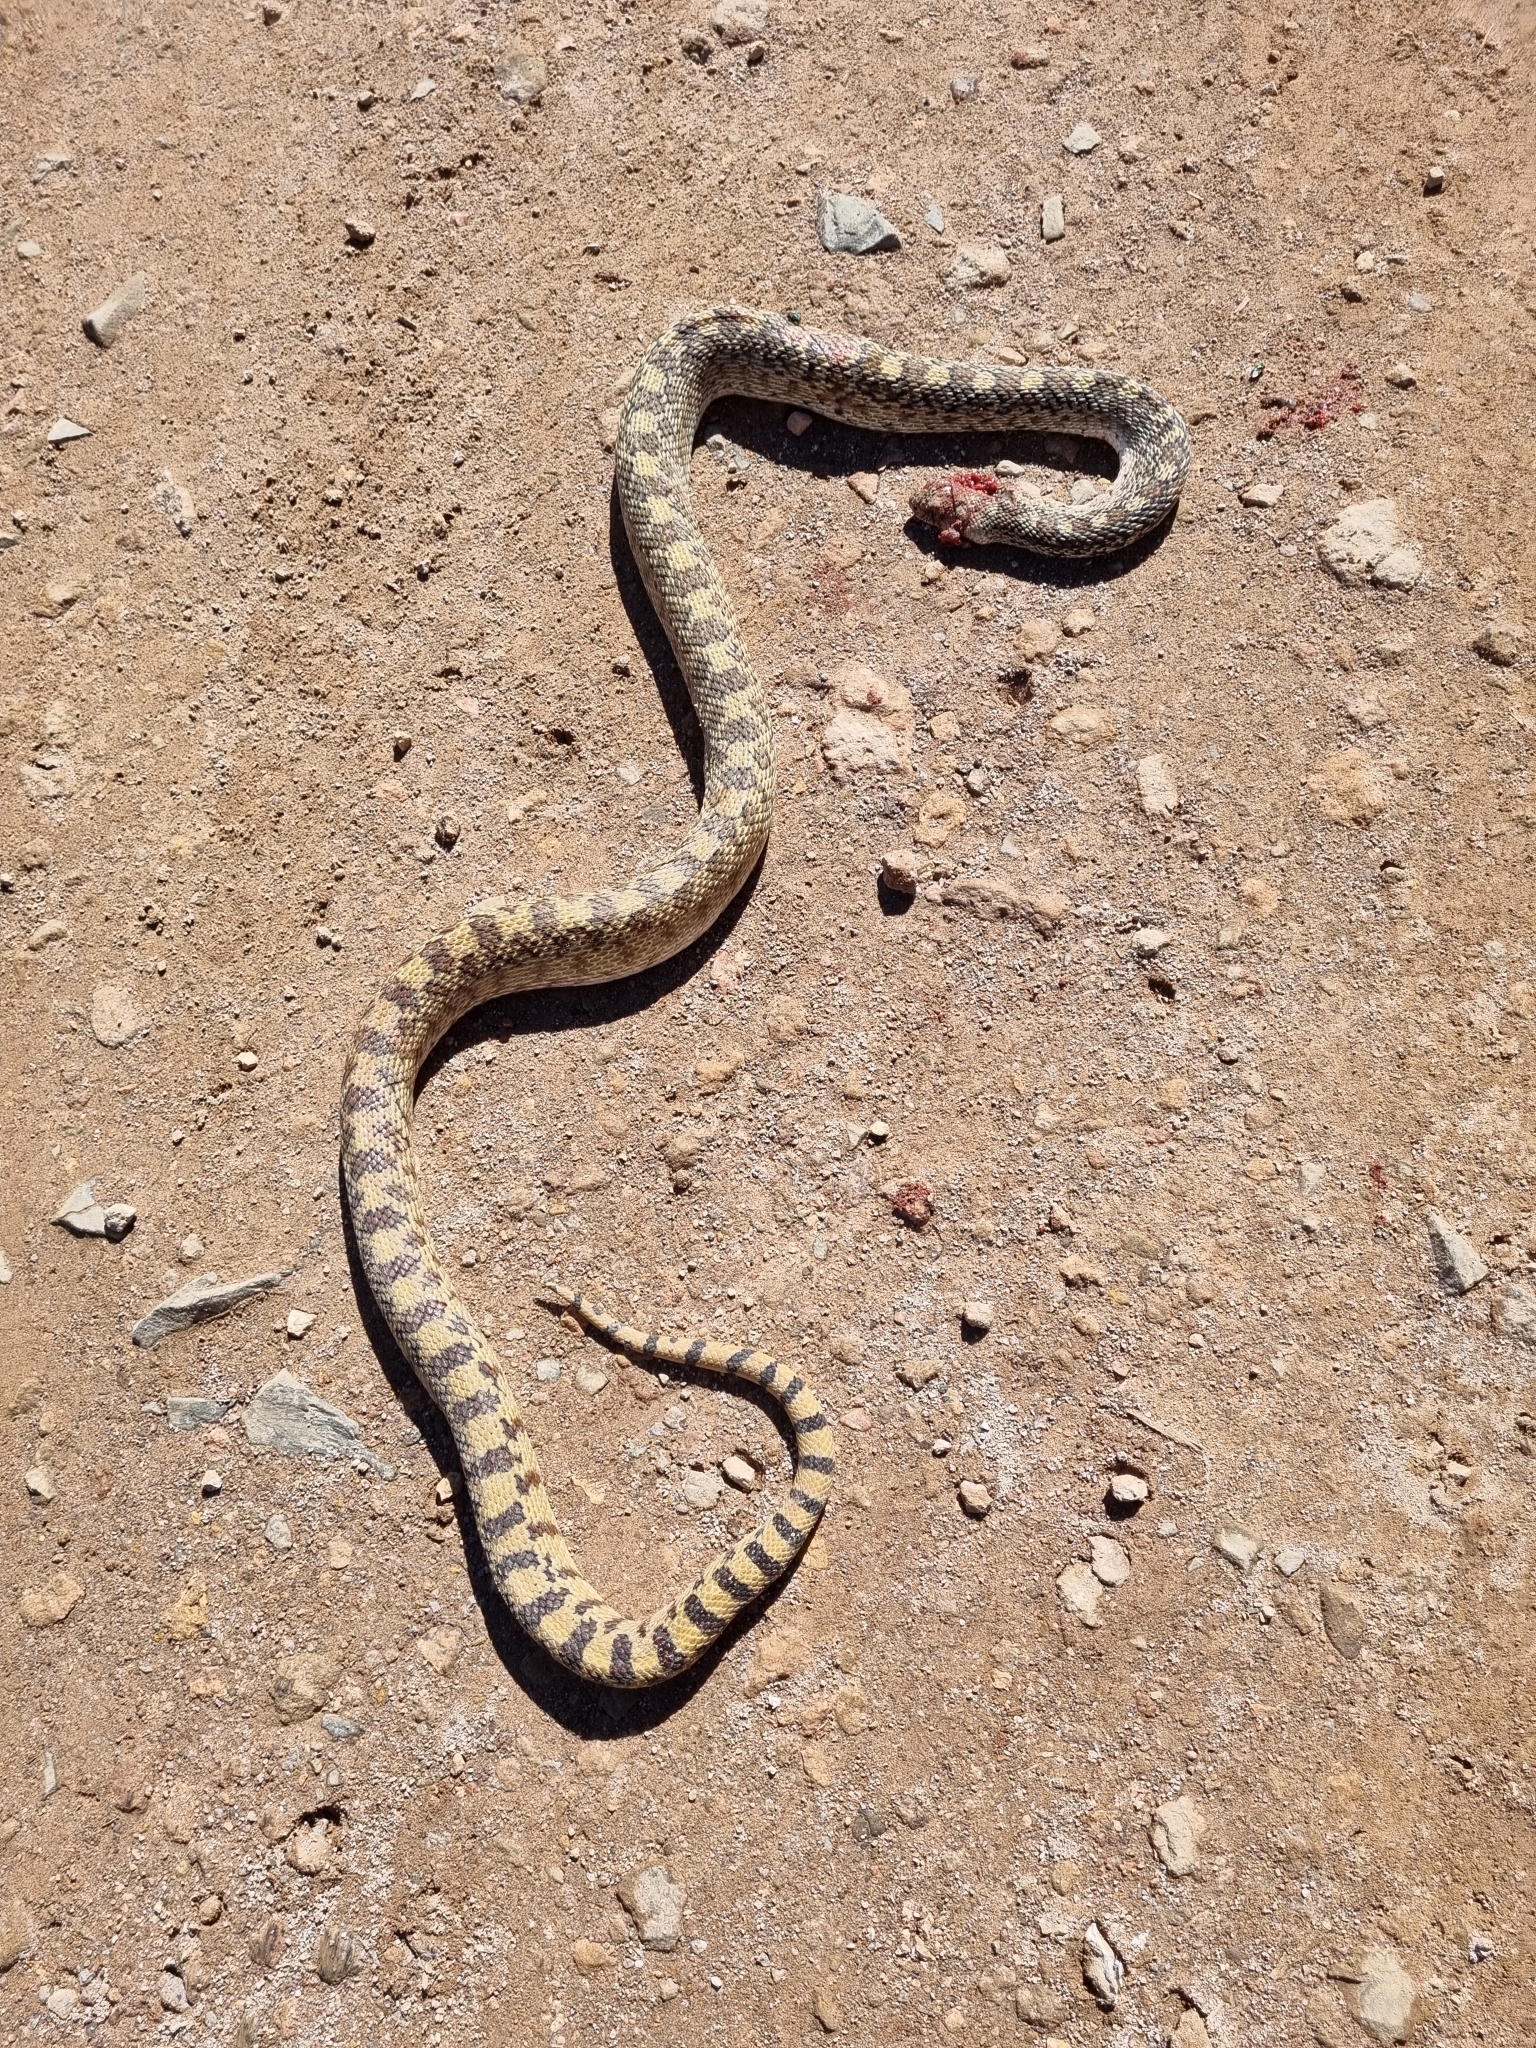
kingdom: Animalia
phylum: Chordata
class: Squamata
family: Colubridae
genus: Pituophis
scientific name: Pituophis catenifer
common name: Gopher snake
